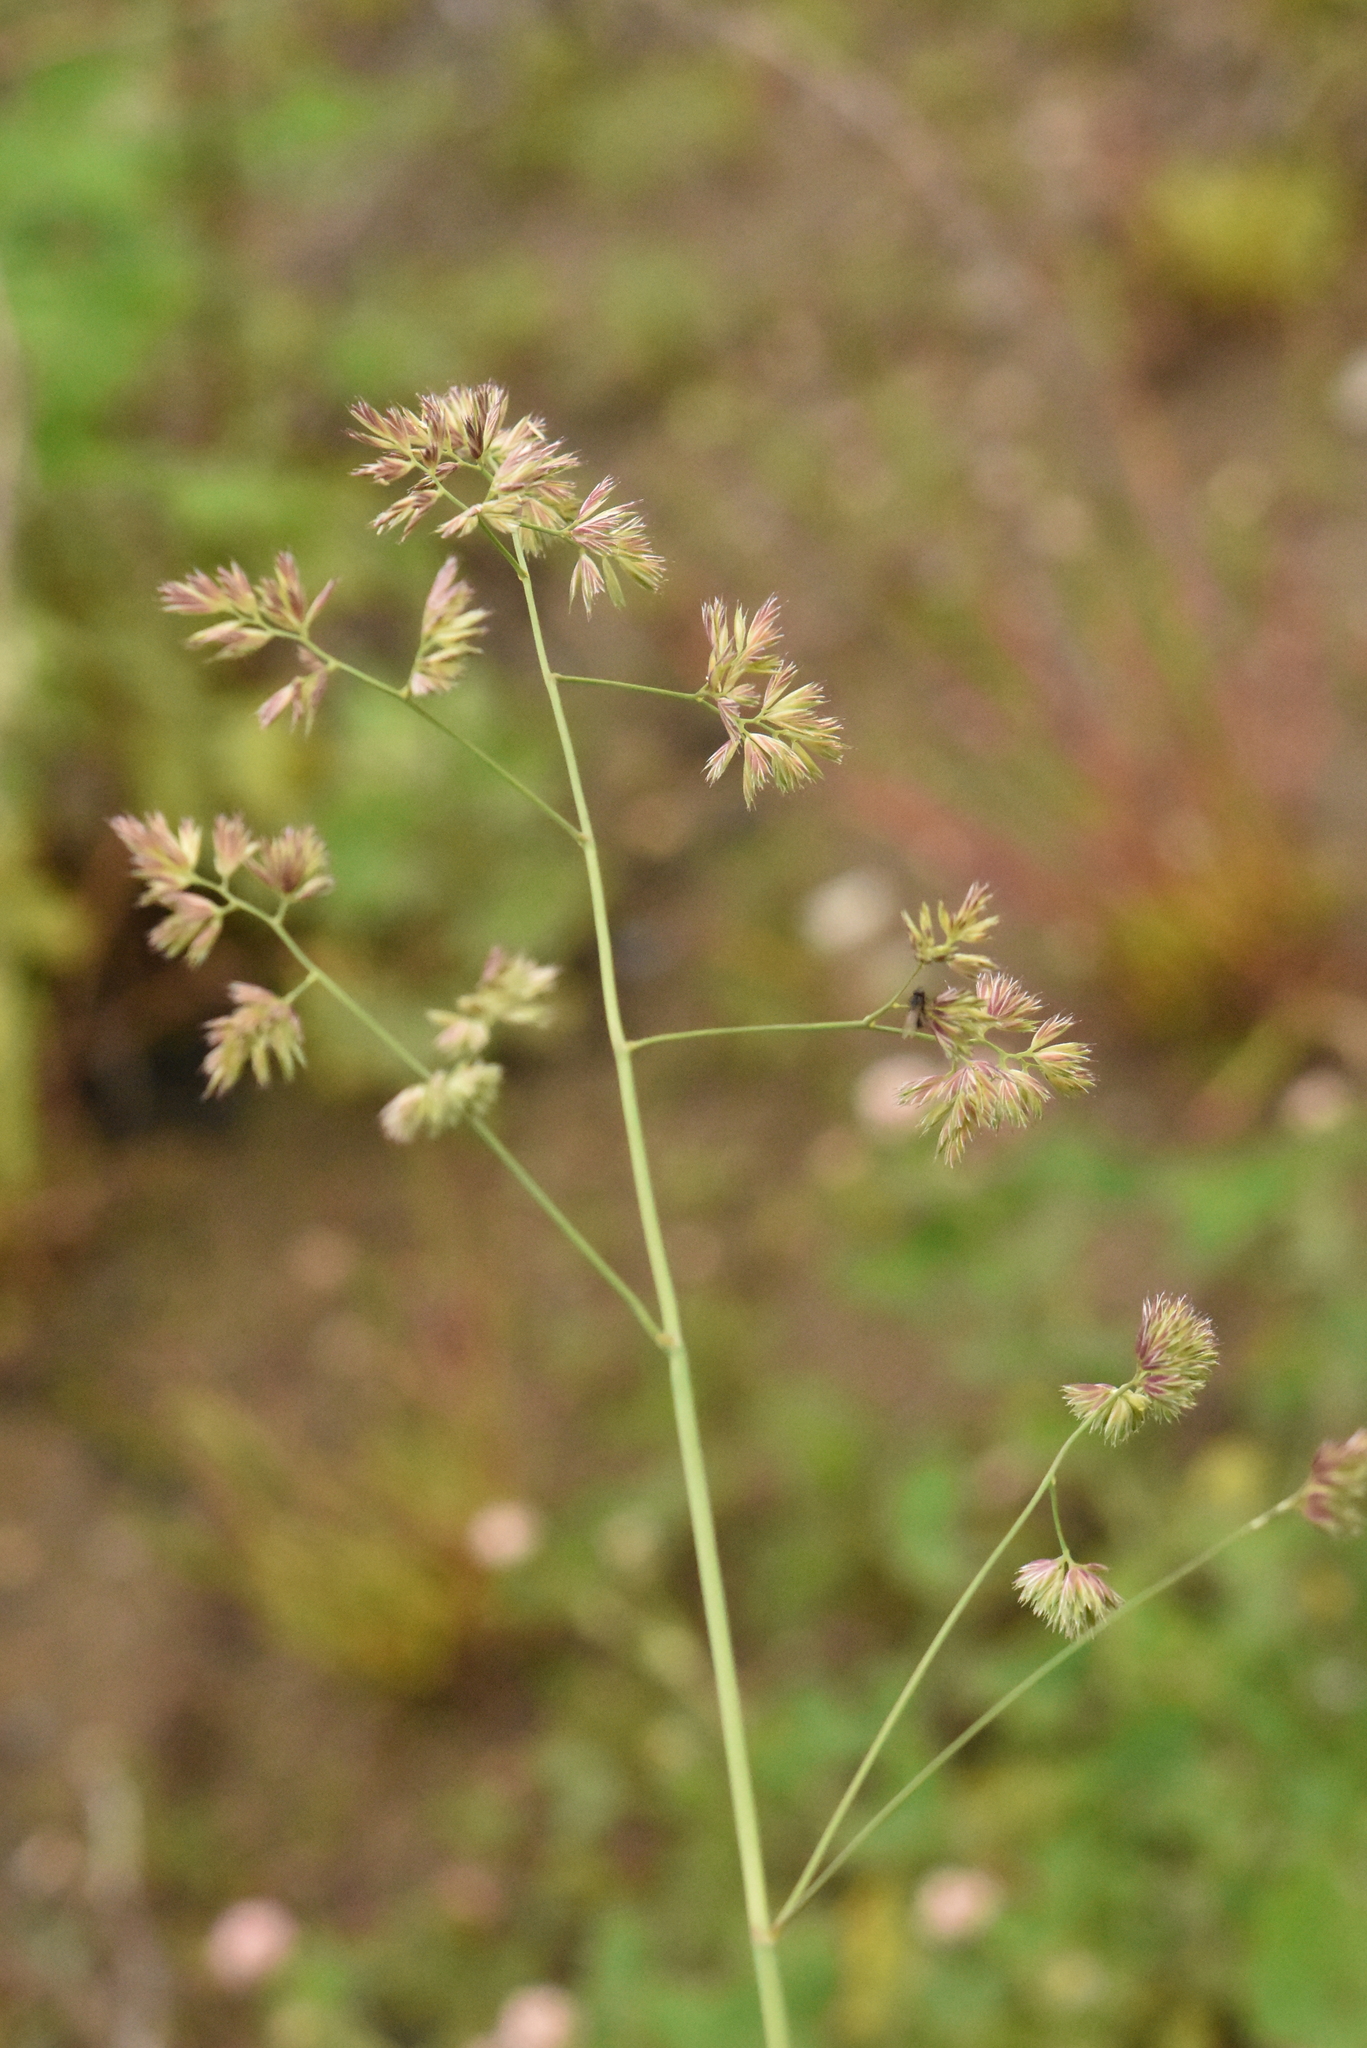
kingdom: Plantae
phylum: Tracheophyta
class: Liliopsida
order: Poales
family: Poaceae
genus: Dactylis
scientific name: Dactylis glomerata
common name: Orchardgrass
